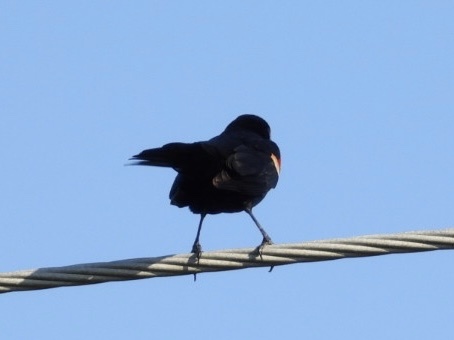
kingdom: Animalia
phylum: Chordata
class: Aves
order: Passeriformes
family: Icteridae
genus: Agelaius
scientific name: Agelaius phoeniceus
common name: Red-winged blackbird
